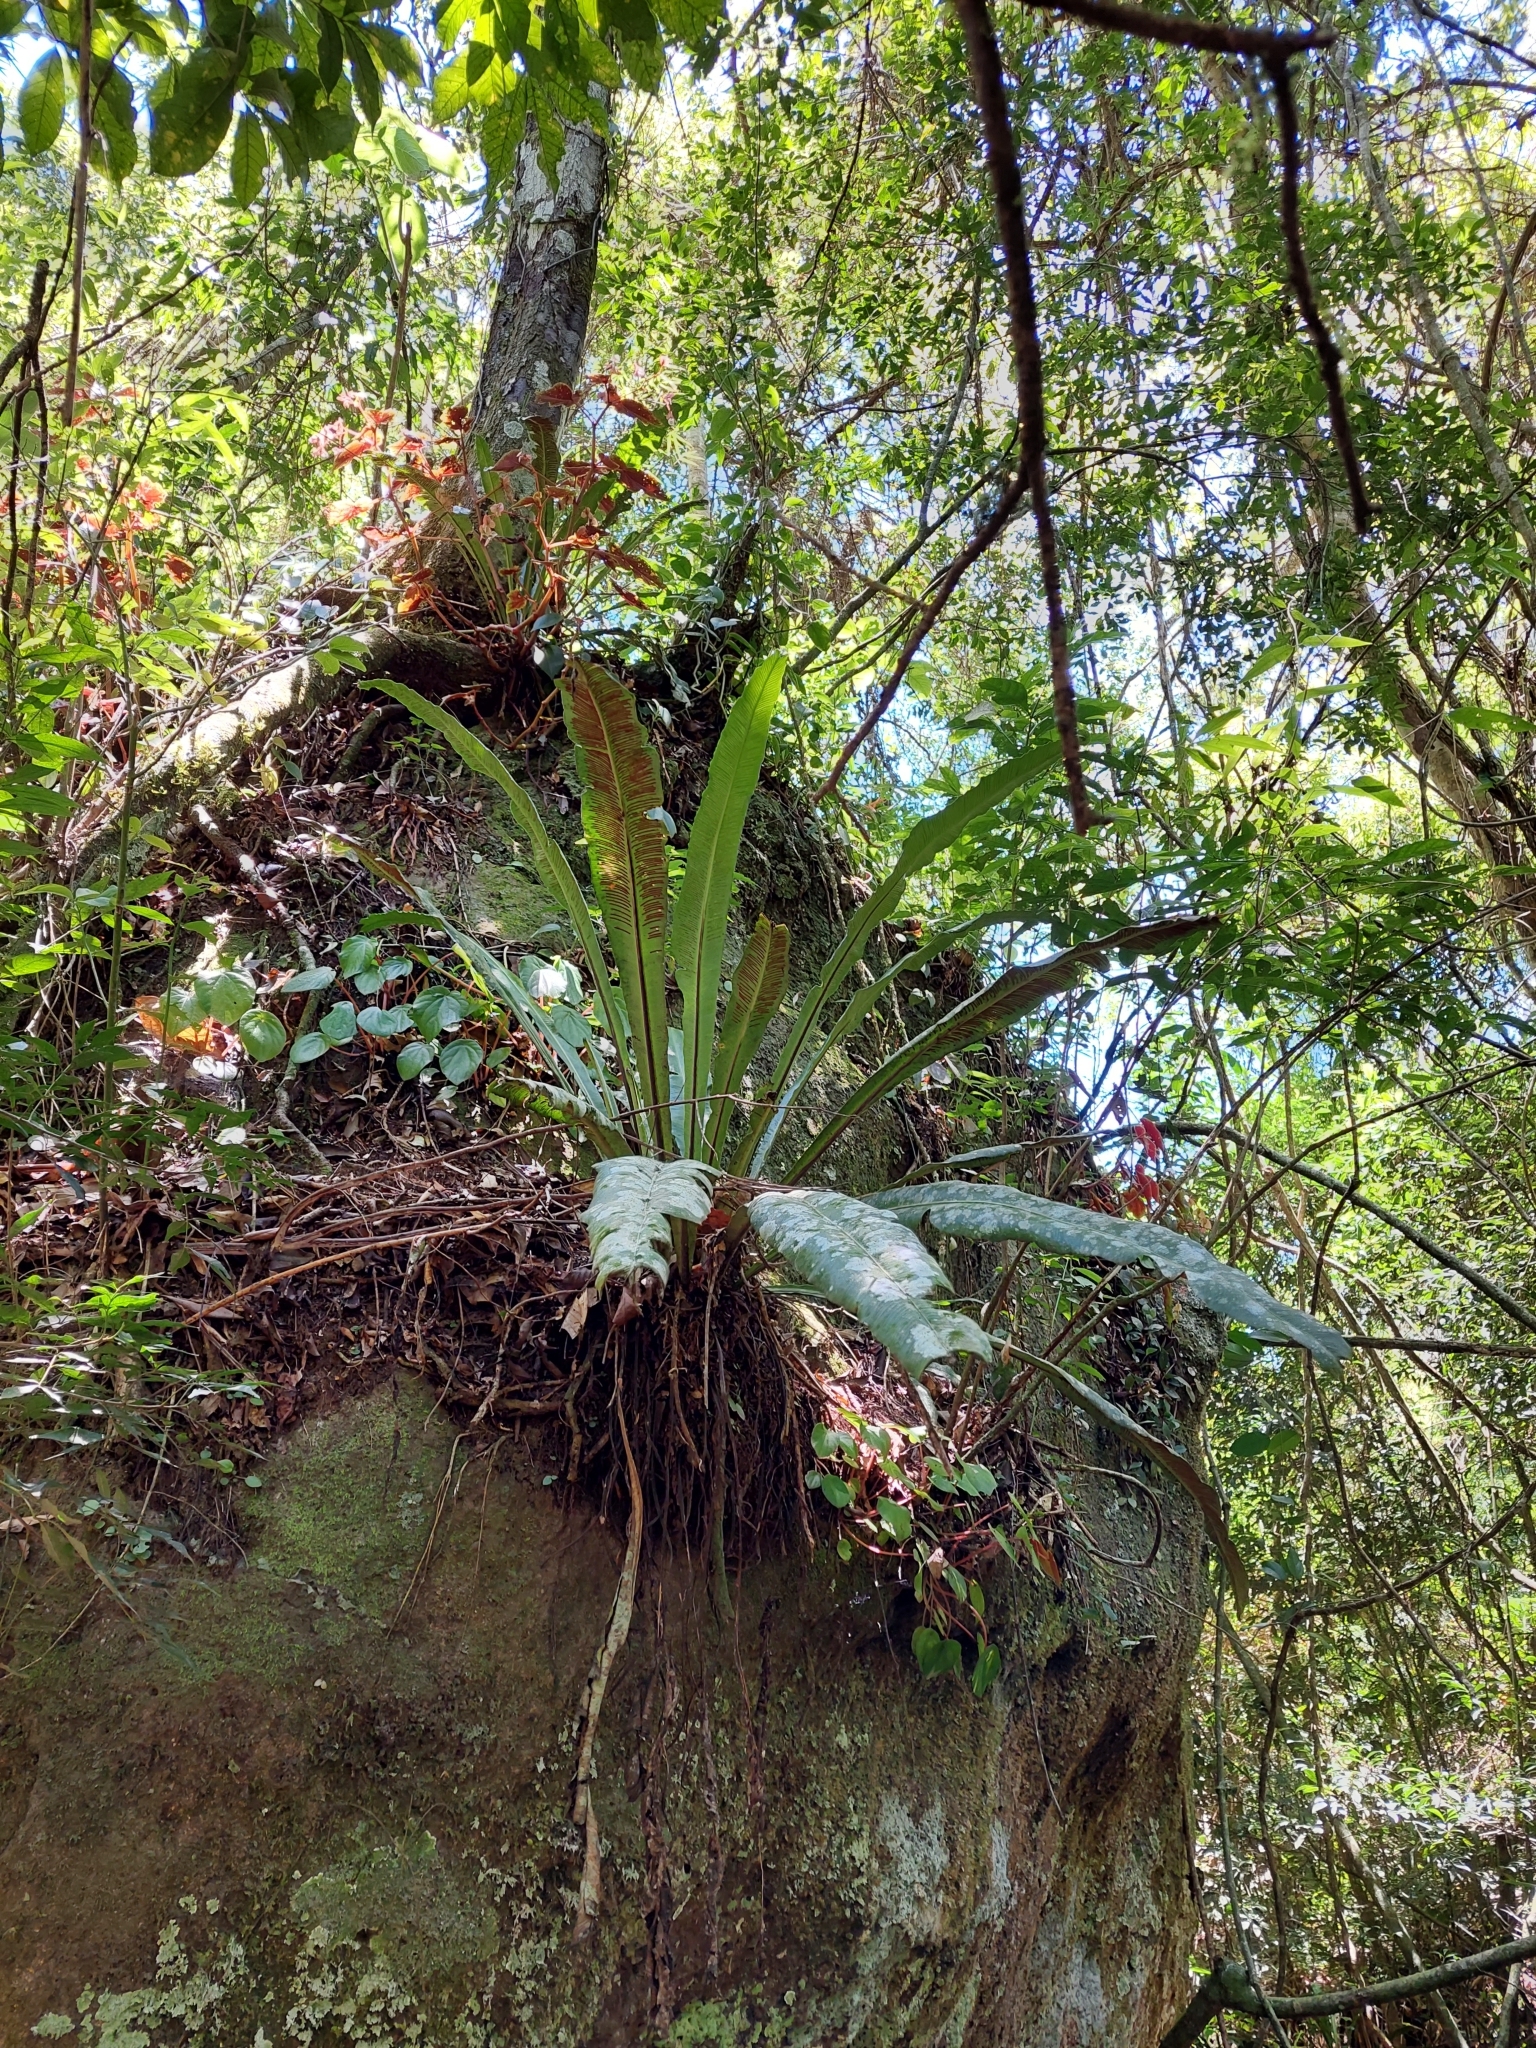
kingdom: Plantae
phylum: Tracheophyta
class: Polypodiopsida
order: Polypodiales
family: Aspleniaceae
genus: Asplenium
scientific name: Asplenium serratum
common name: Wild birdnest fern
